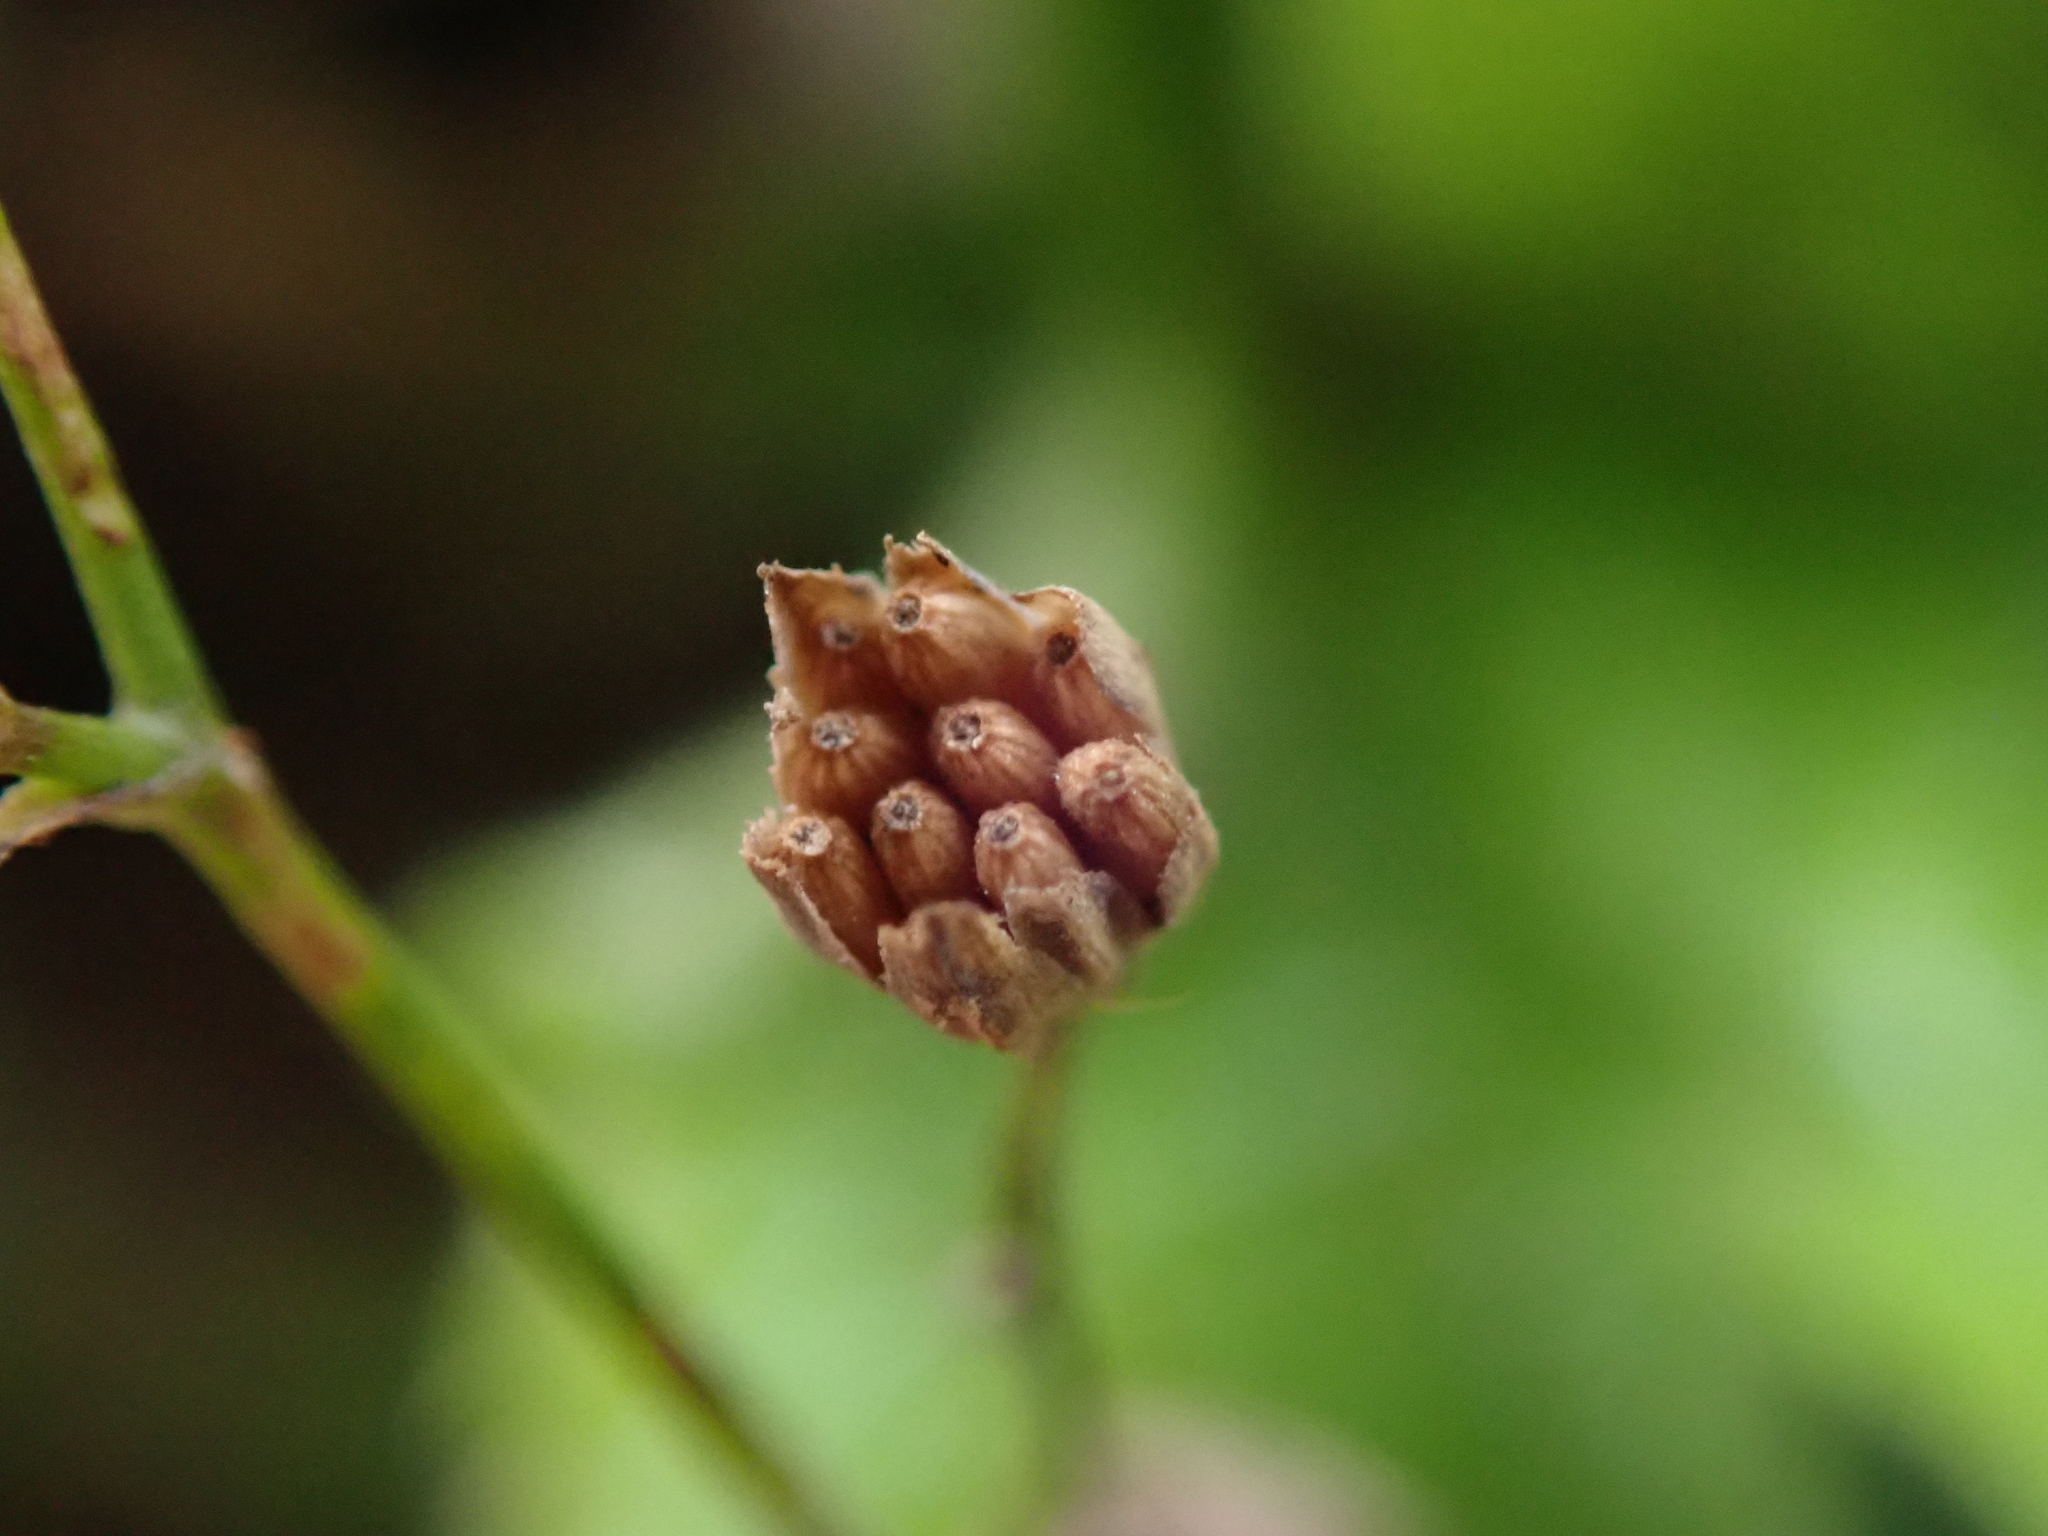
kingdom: Plantae
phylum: Tracheophyta
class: Magnoliopsida
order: Asterales
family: Asteraceae
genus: Lapsana
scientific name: Lapsana communis
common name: Nipplewort
